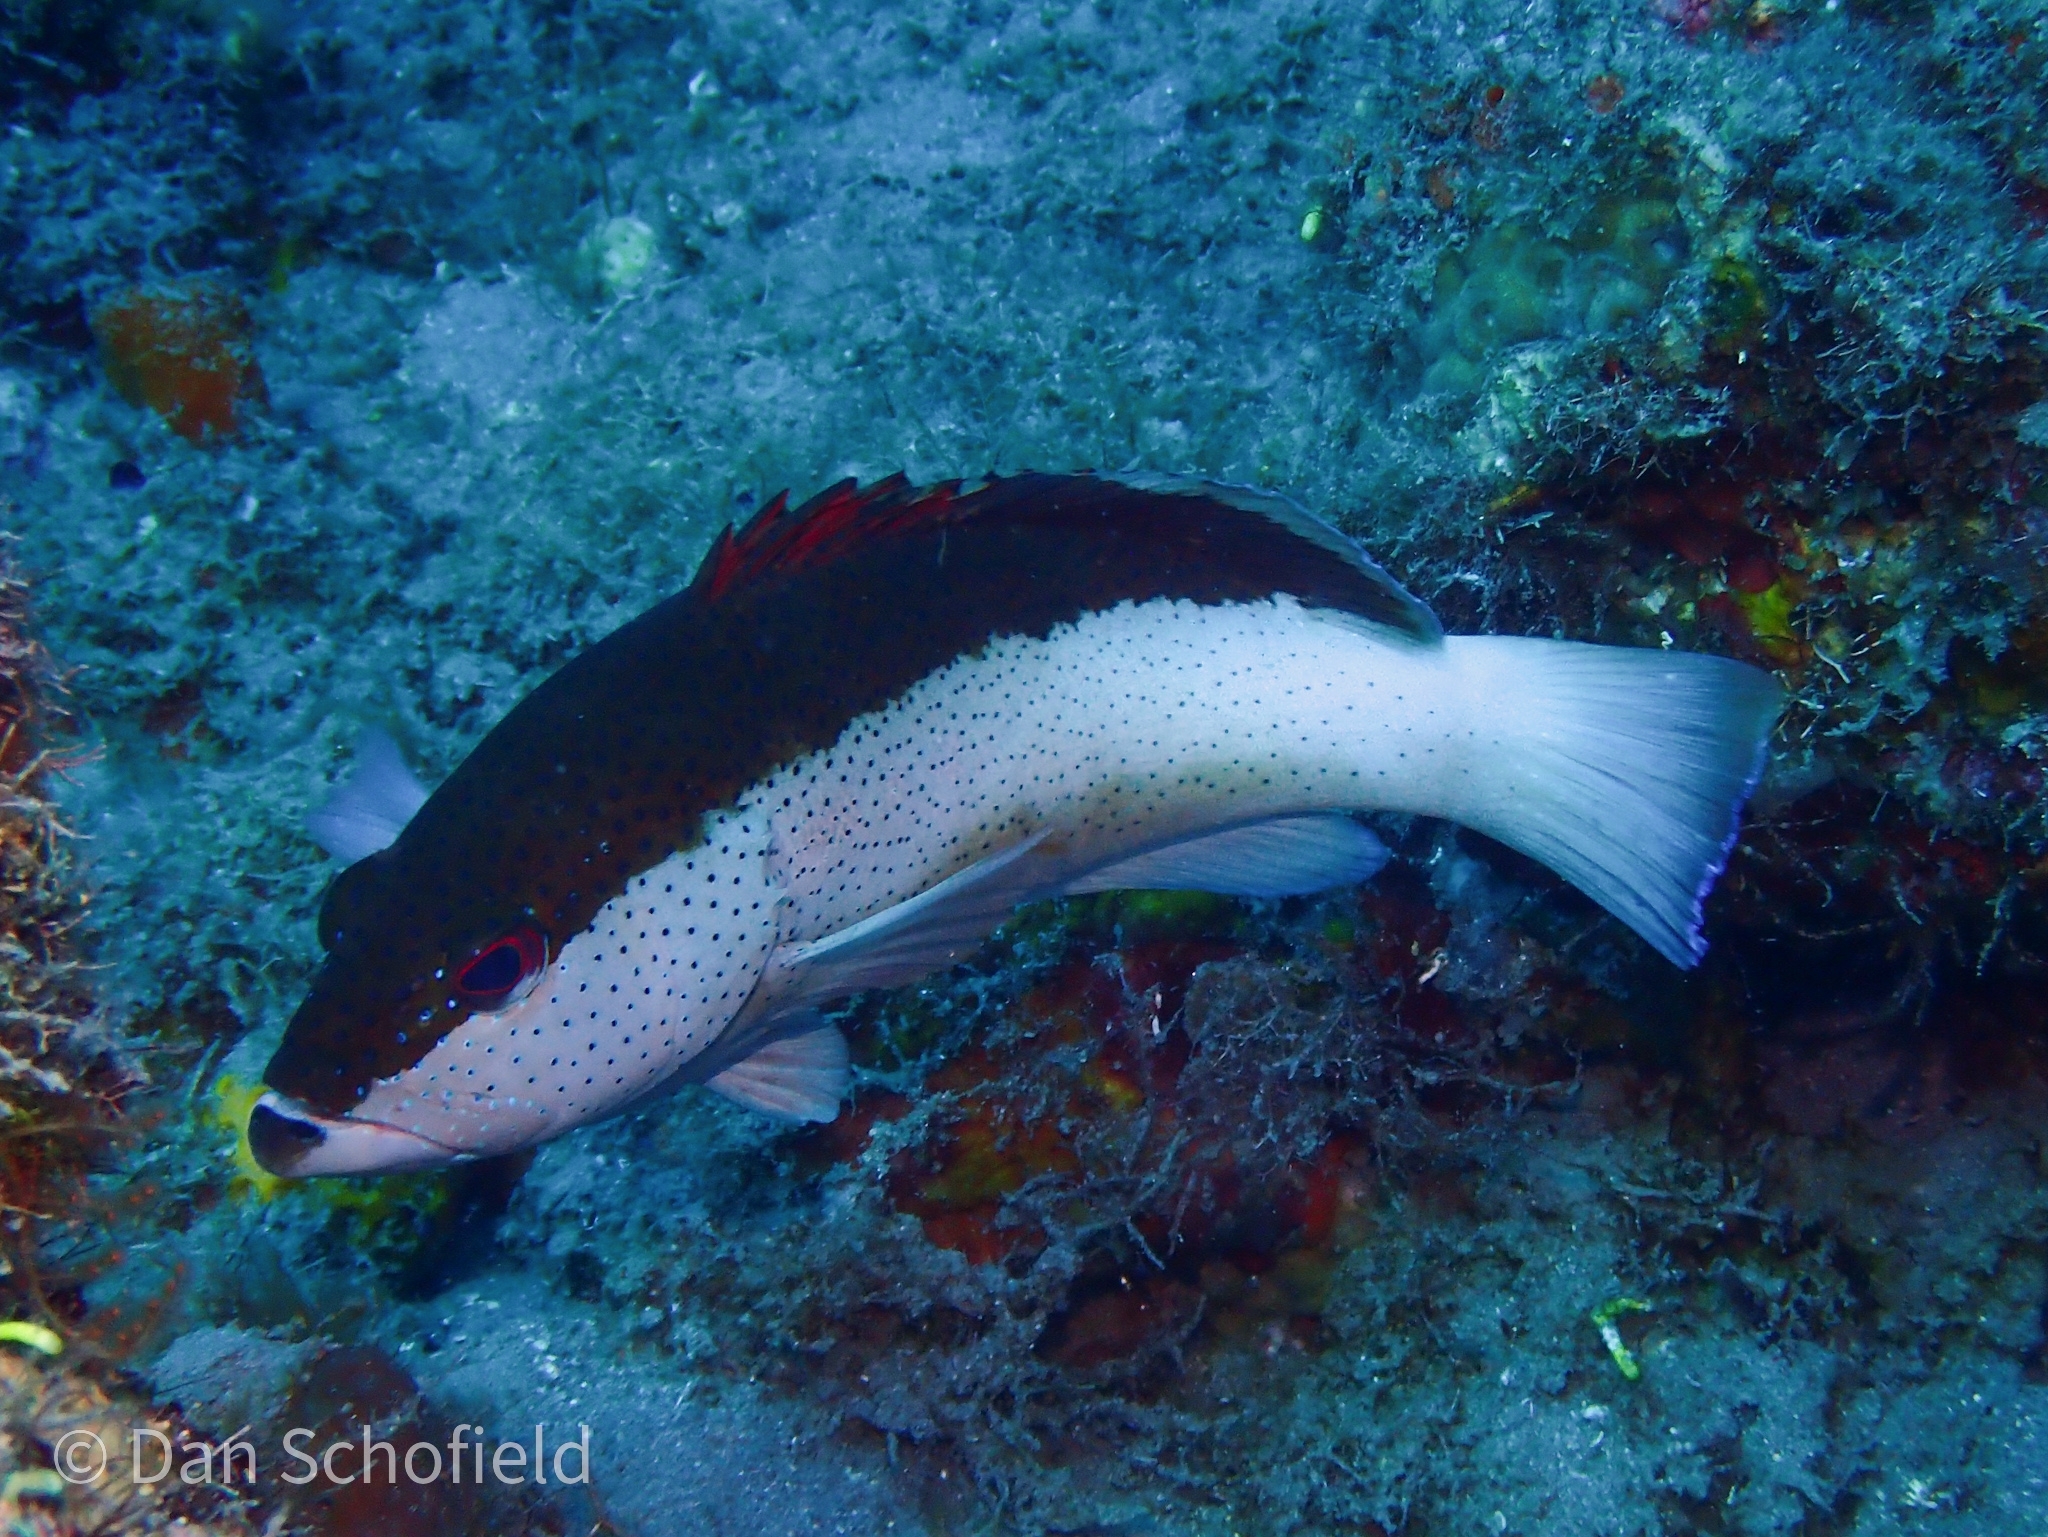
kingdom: Animalia
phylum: Chordata
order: Perciformes
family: Serranidae
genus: Cephalopholis
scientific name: Cephalopholis fulva
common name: Butterfish
